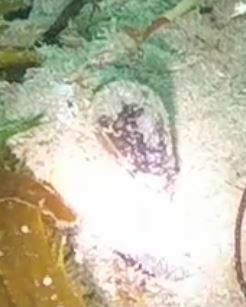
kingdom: Animalia
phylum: Mollusca
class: Gastropoda
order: Neogastropoda
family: Conidae
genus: Californiconus
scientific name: Californiconus californicus
